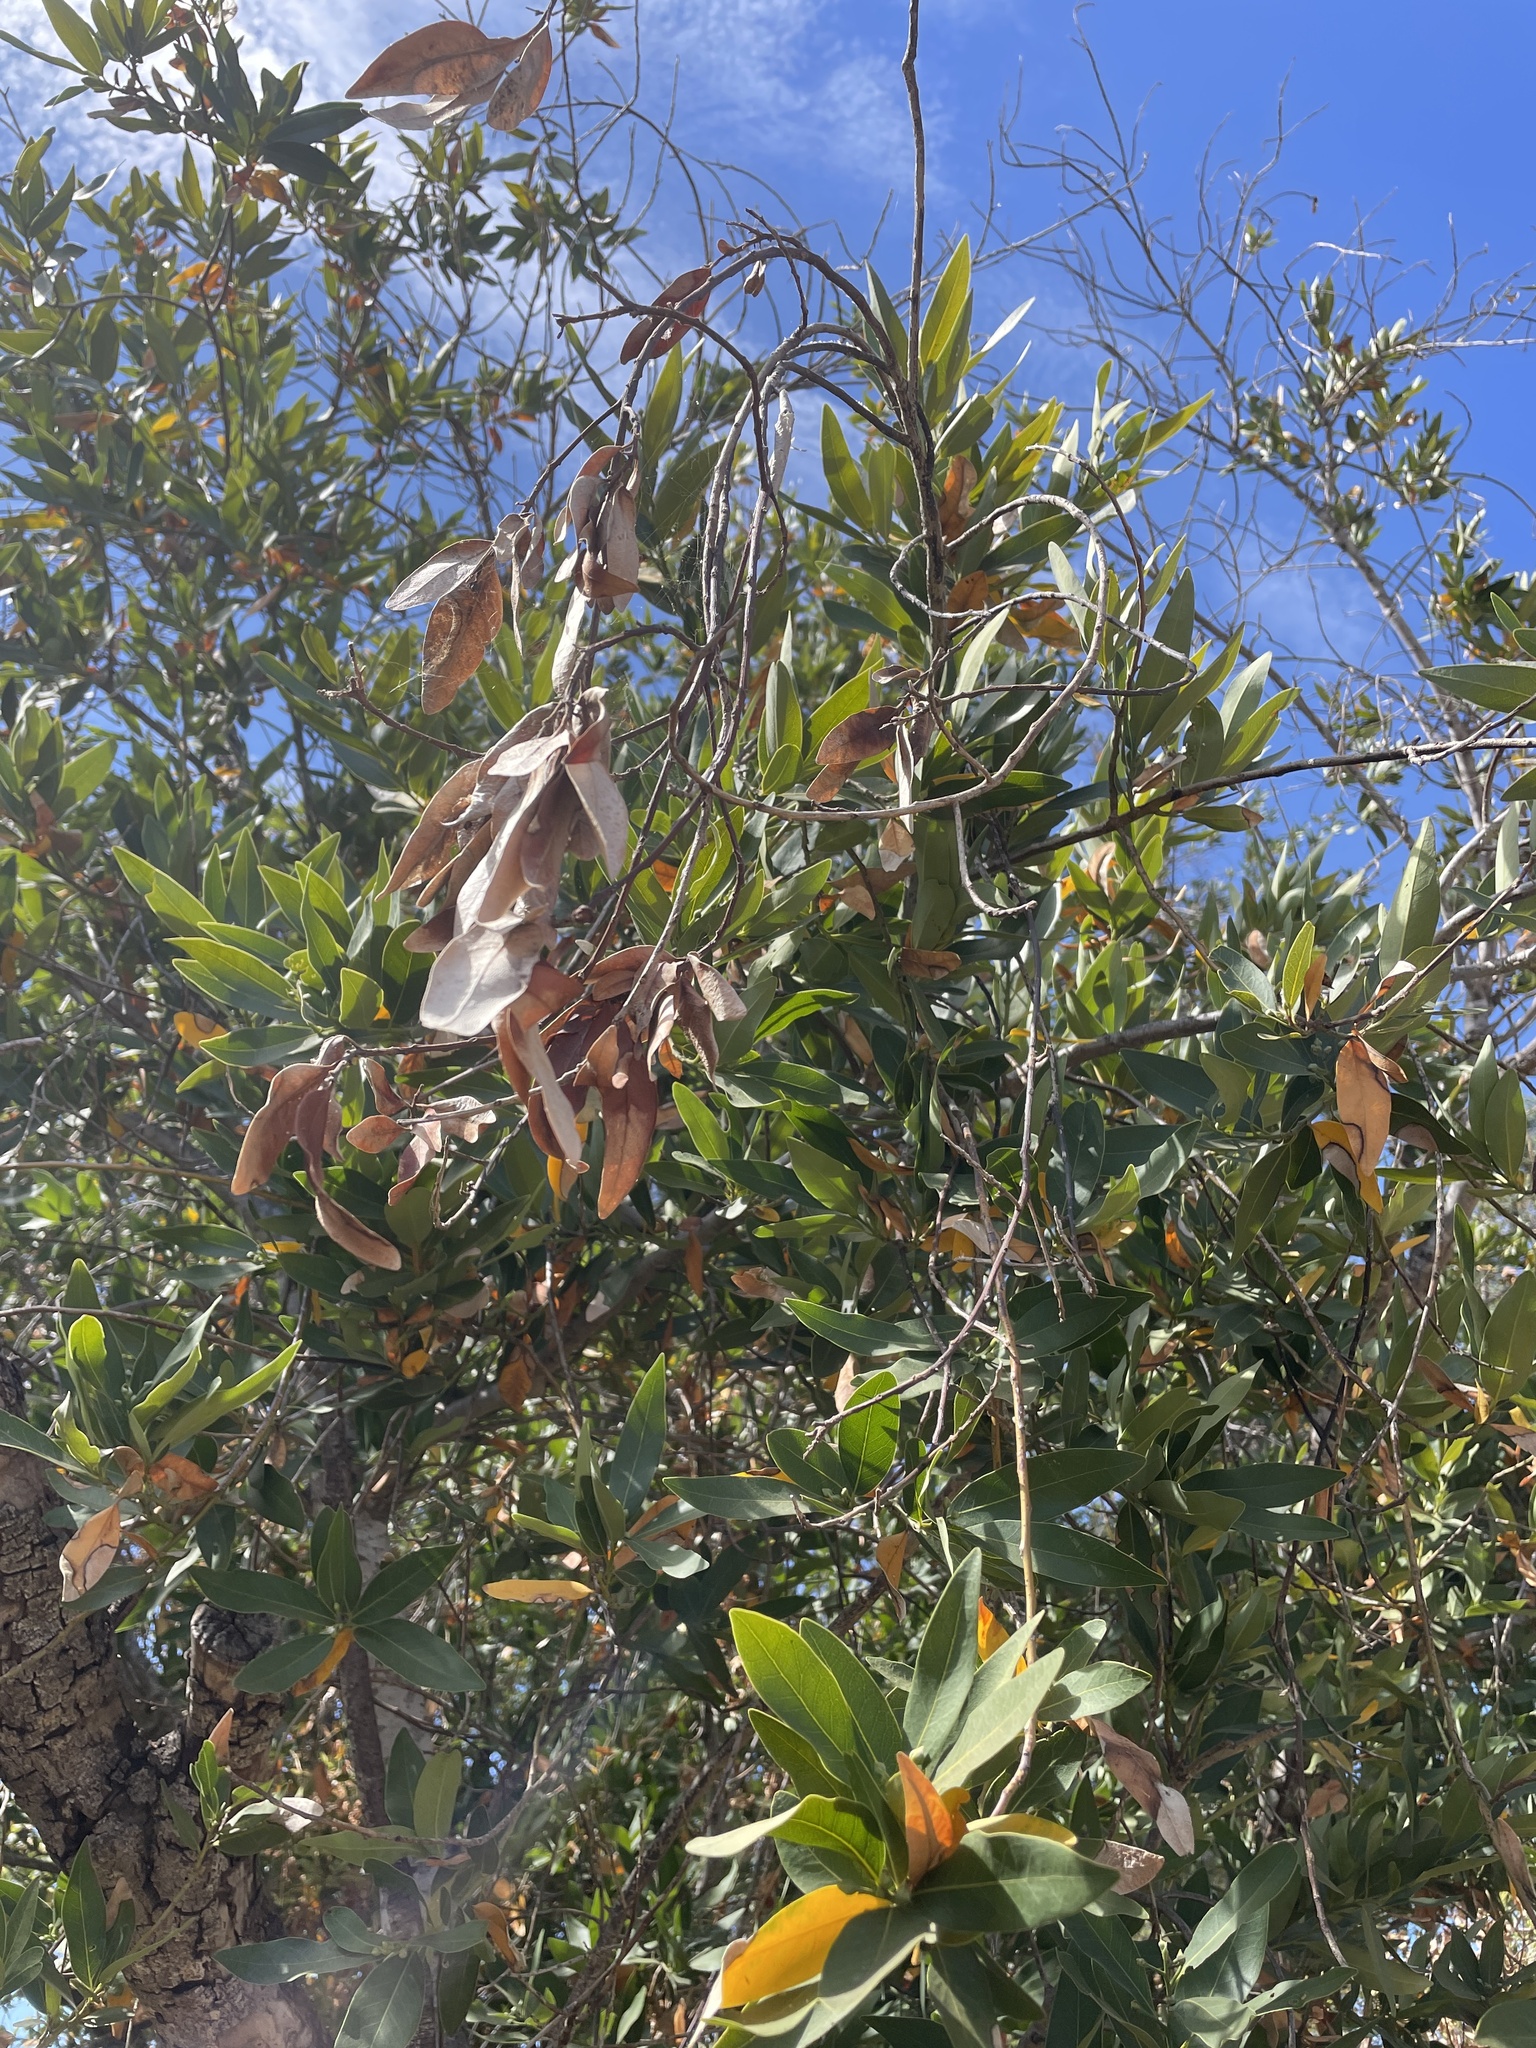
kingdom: Plantae
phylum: Tracheophyta
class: Magnoliopsida
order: Laurales
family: Lauraceae
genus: Umbellularia
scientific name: Umbellularia californica
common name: California bay
